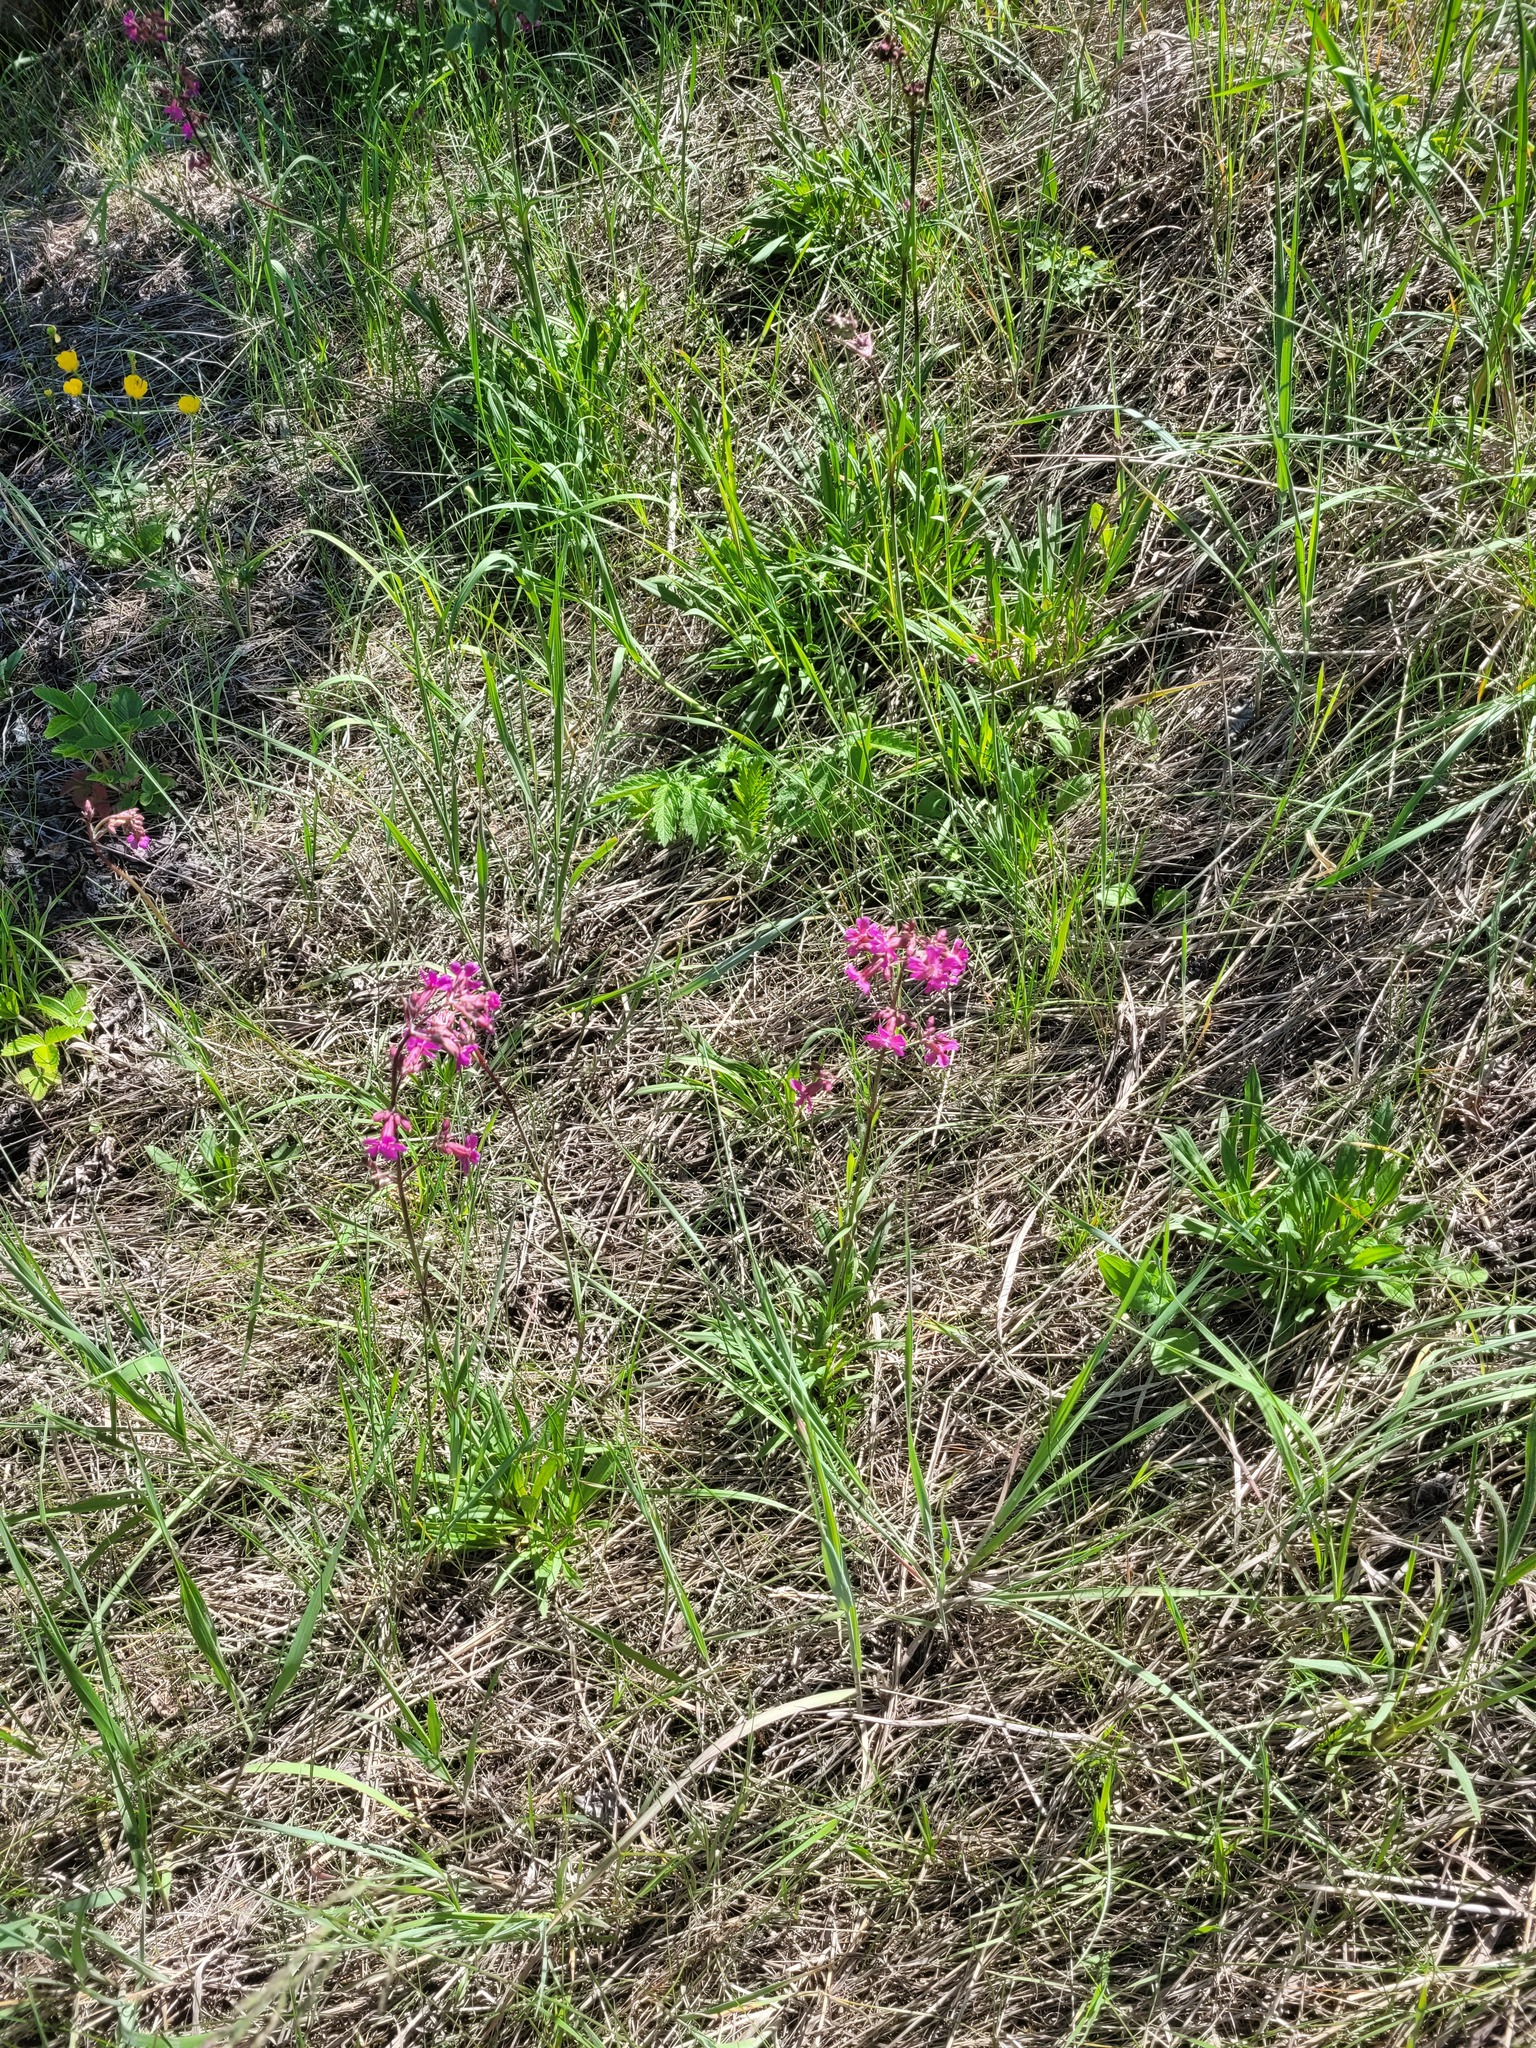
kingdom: Plantae
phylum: Tracheophyta
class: Magnoliopsida
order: Caryophyllales
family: Caryophyllaceae
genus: Viscaria
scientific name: Viscaria vulgaris
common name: Clammy campion
